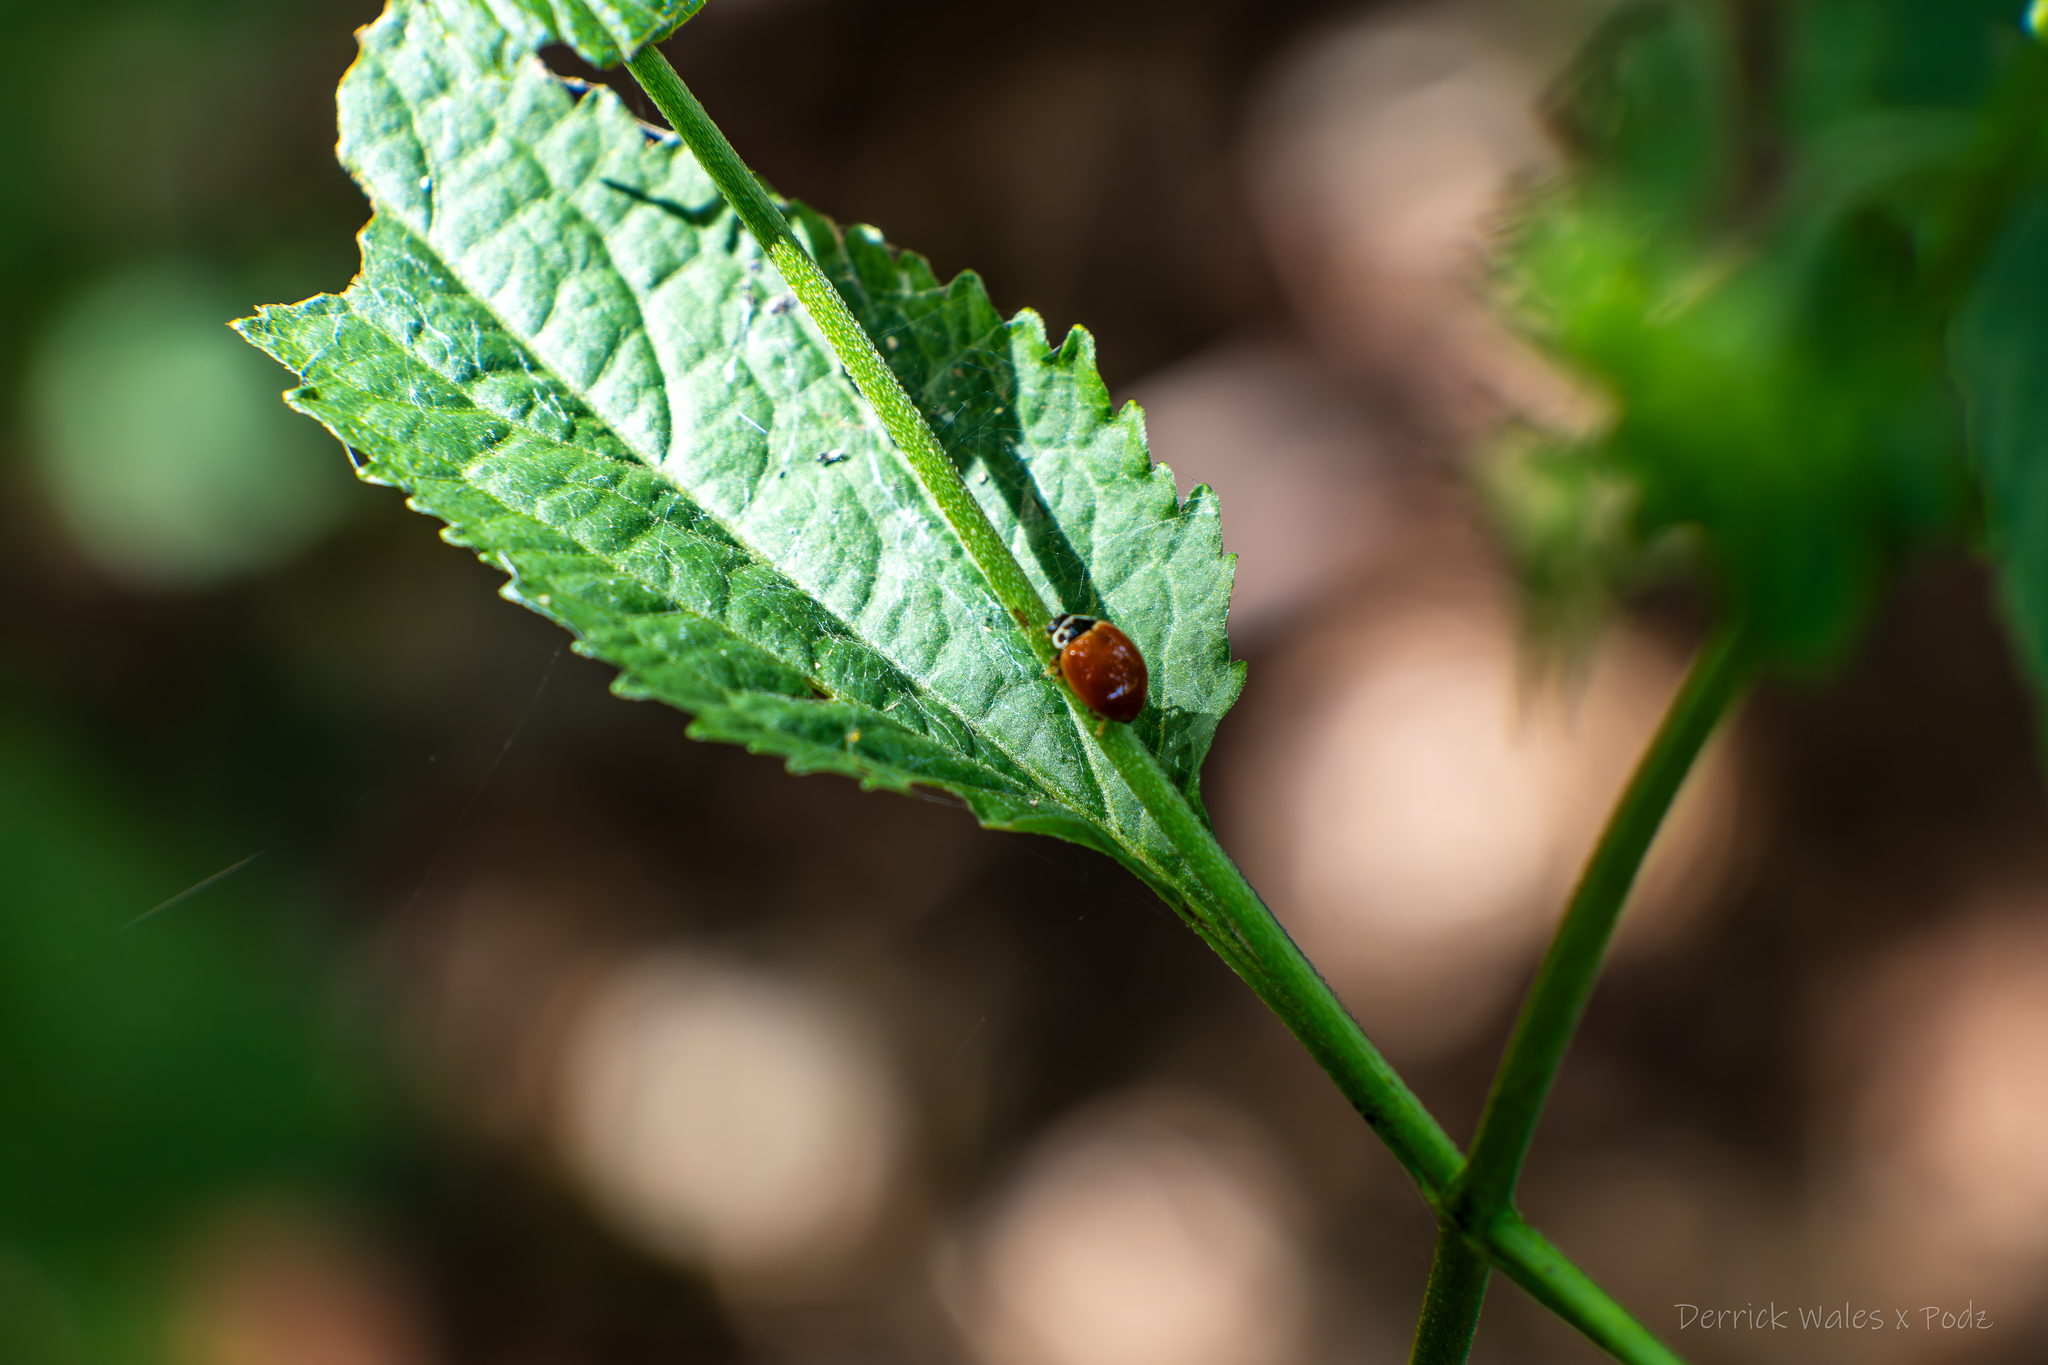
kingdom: Animalia
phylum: Arthropoda
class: Insecta
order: Coleoptera
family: Coccinellidae
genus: Cycloneda
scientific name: Cycloneda munda
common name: Polished lady beetle
